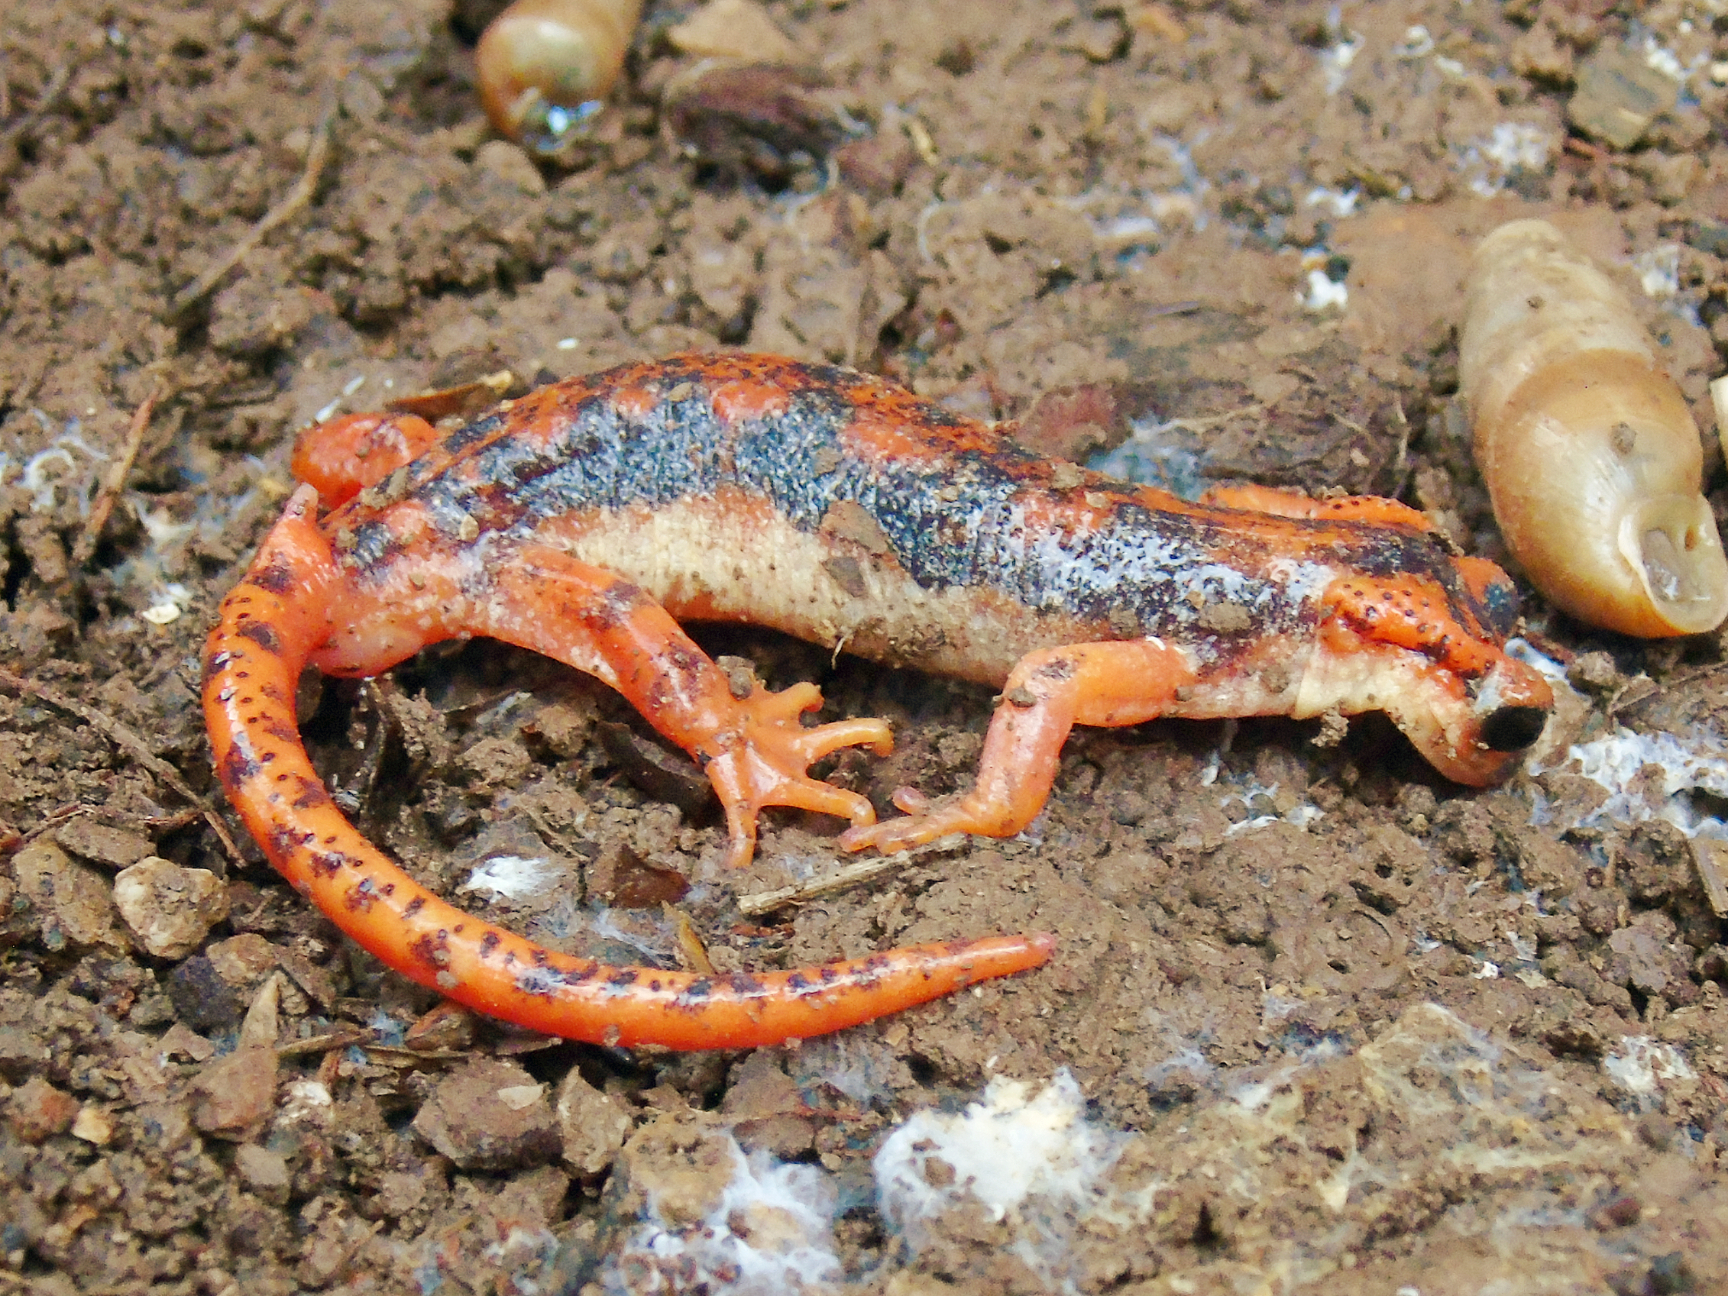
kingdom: Animalia
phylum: Chordata
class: Amphibia
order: Caudata
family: Salamandridae
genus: Lyciasalamandra
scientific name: Lyciasalamandra fazilae
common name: Fazila's salamander
